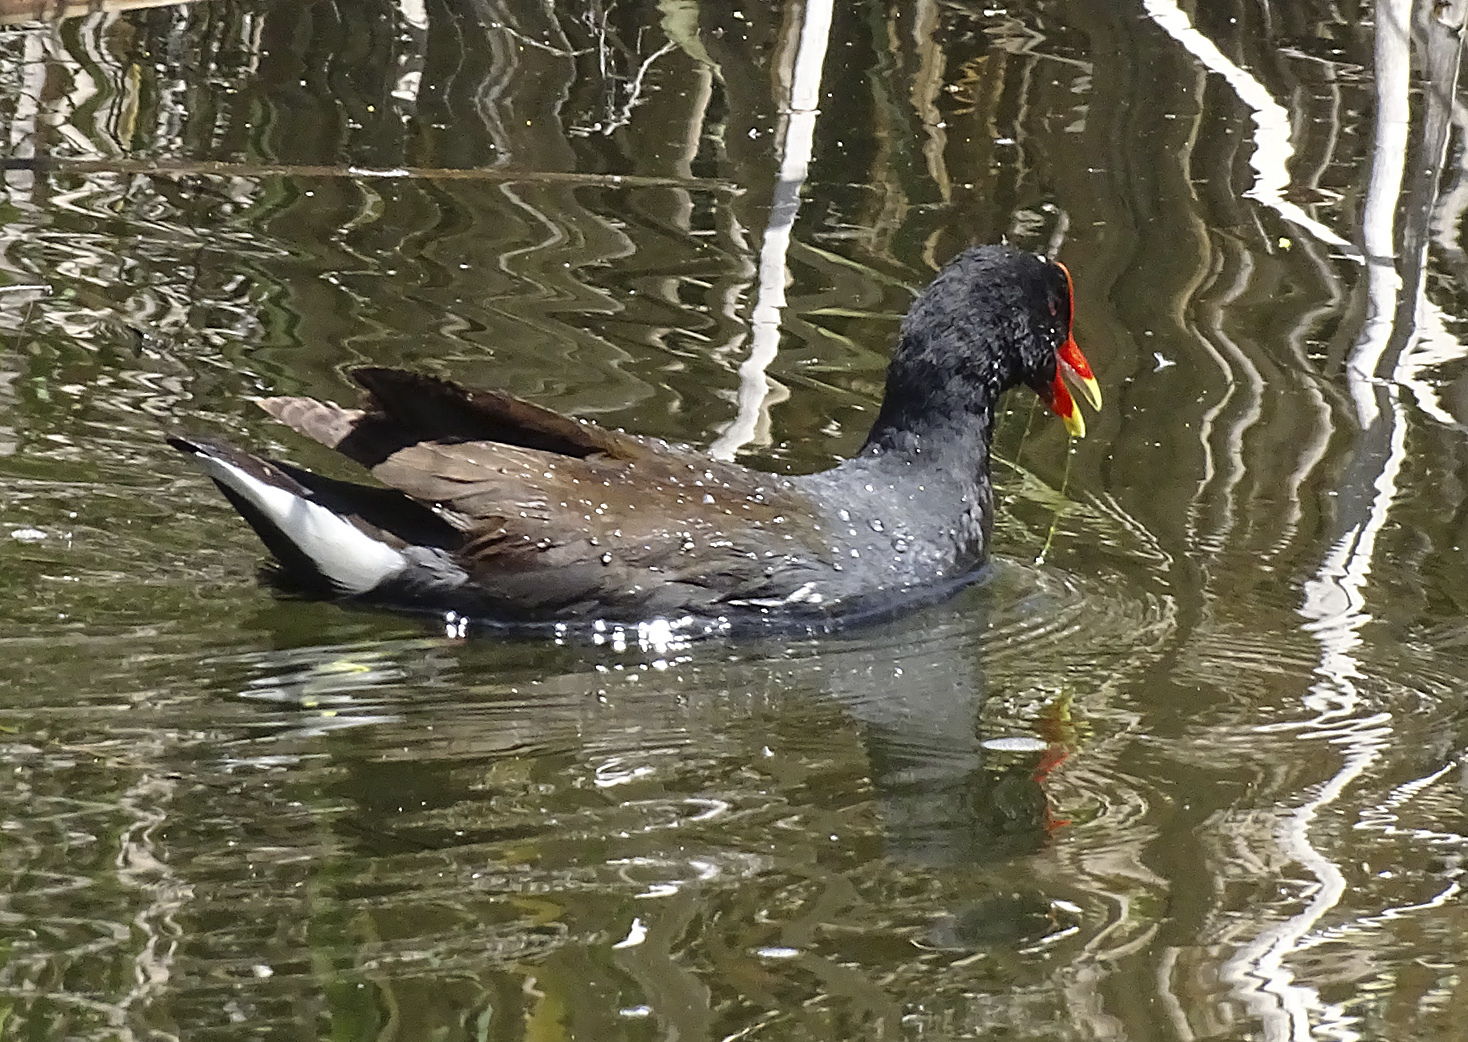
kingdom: Animalia
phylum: Chordata
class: Aves
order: Gruiformes
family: Rallidae
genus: Gallinula
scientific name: Gallinula chloropus
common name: Common moorhen
